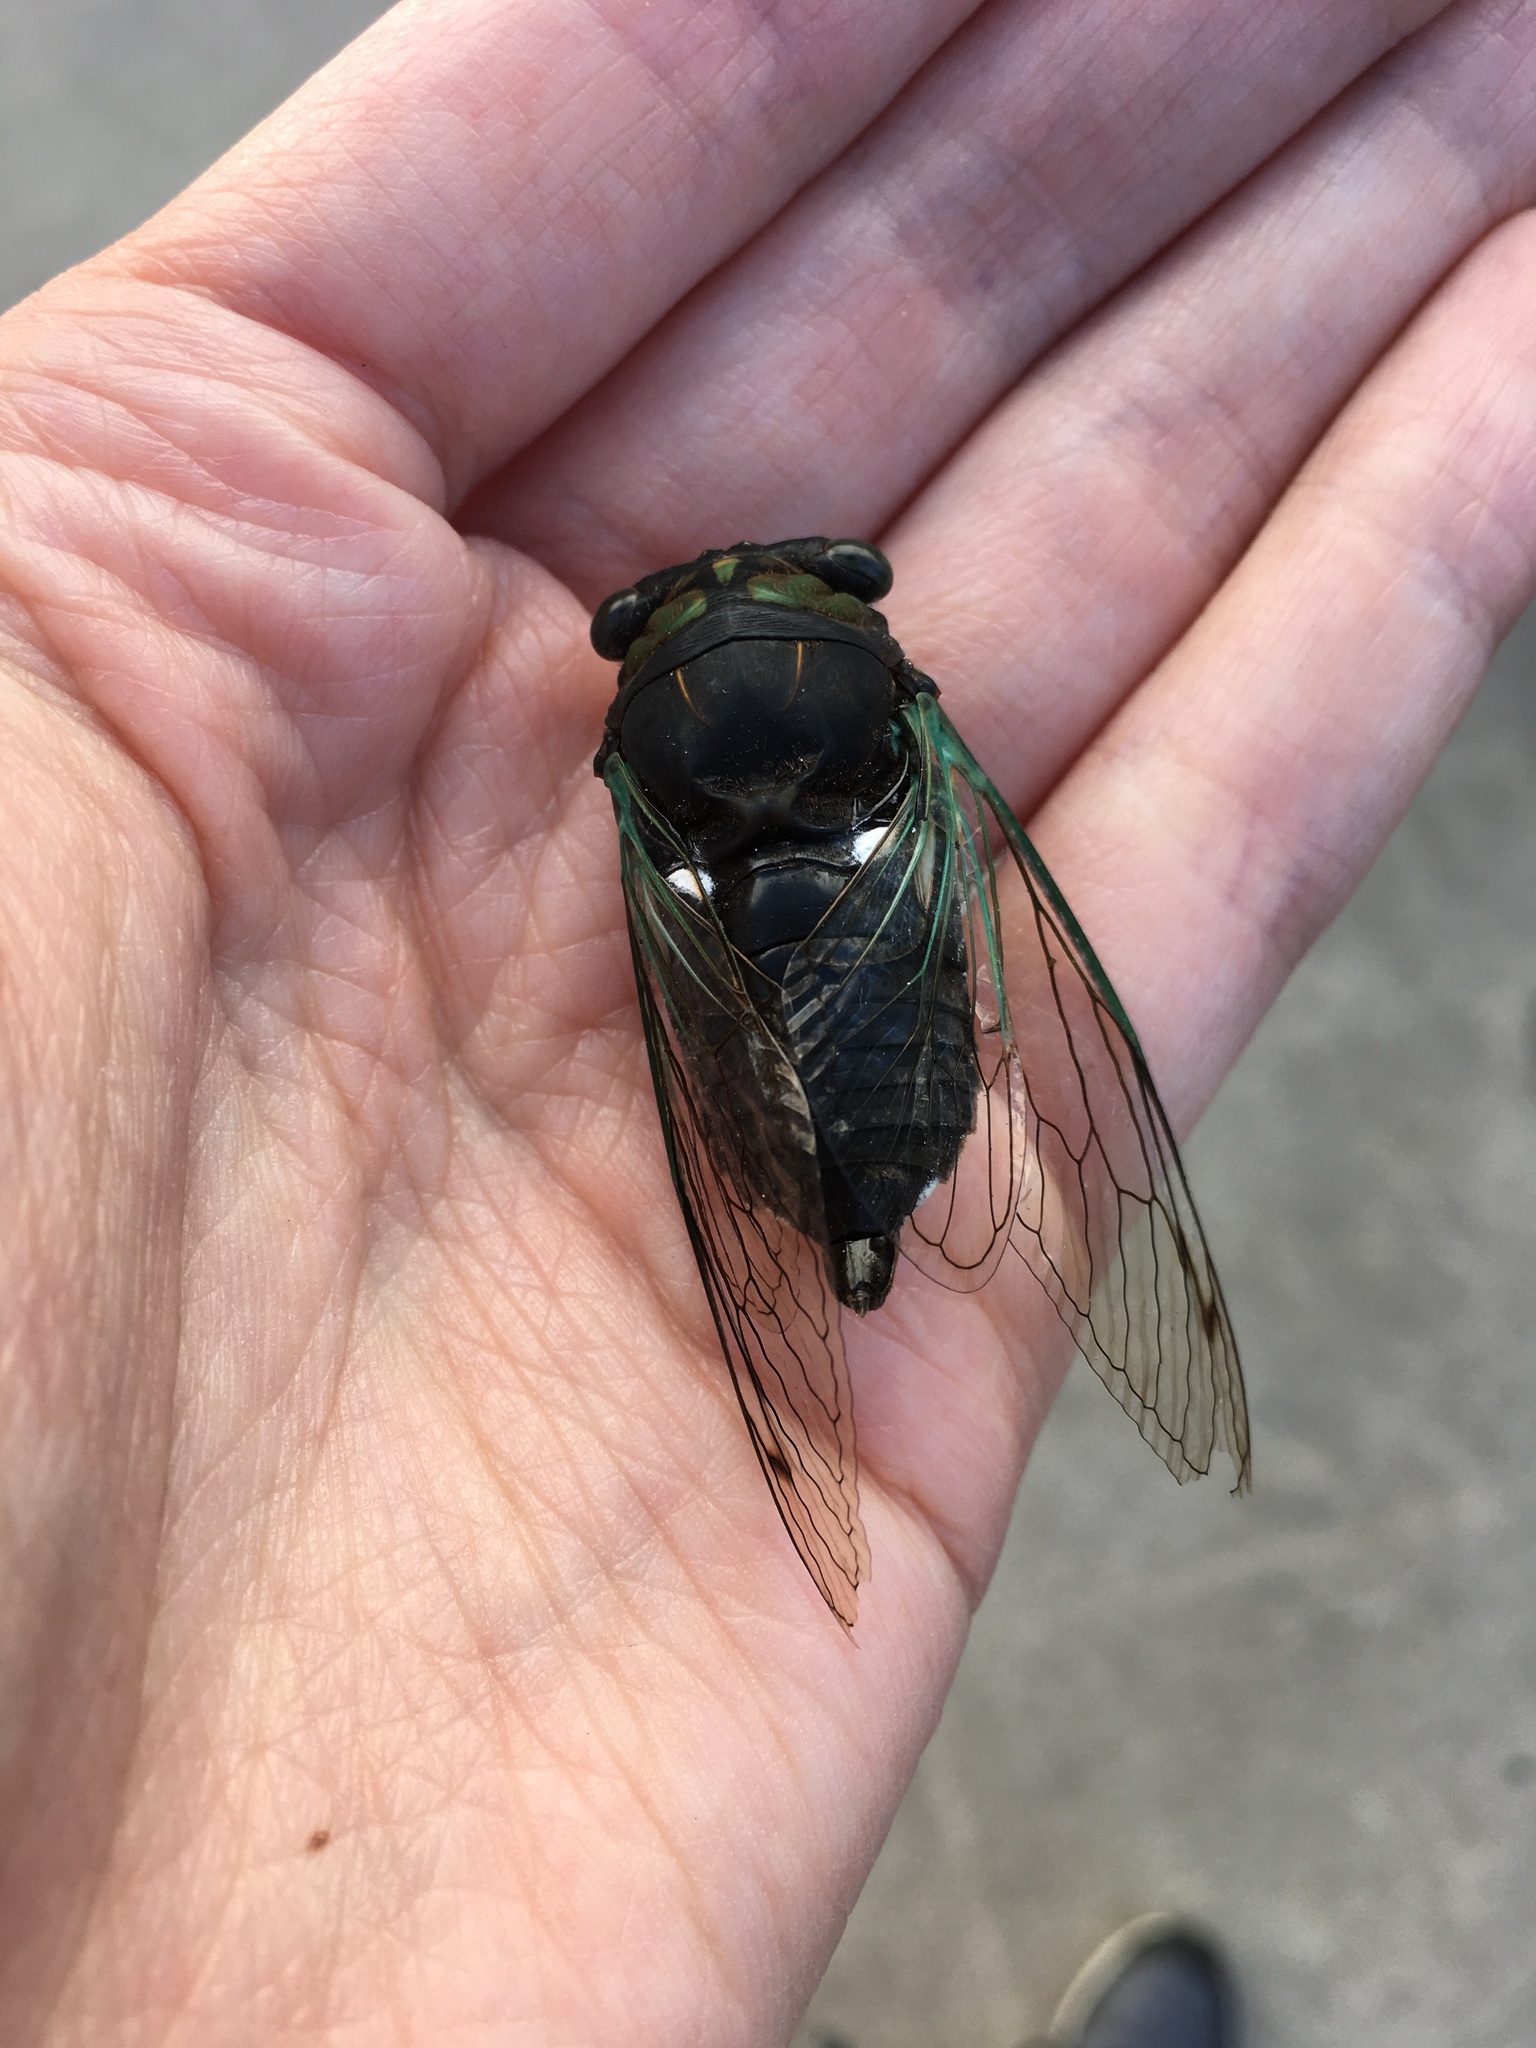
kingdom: Animalia
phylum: Arthropoda
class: Insecta
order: Hemiptera
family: Cicadidae
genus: Neotibicen
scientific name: Neotibicen tibicen
